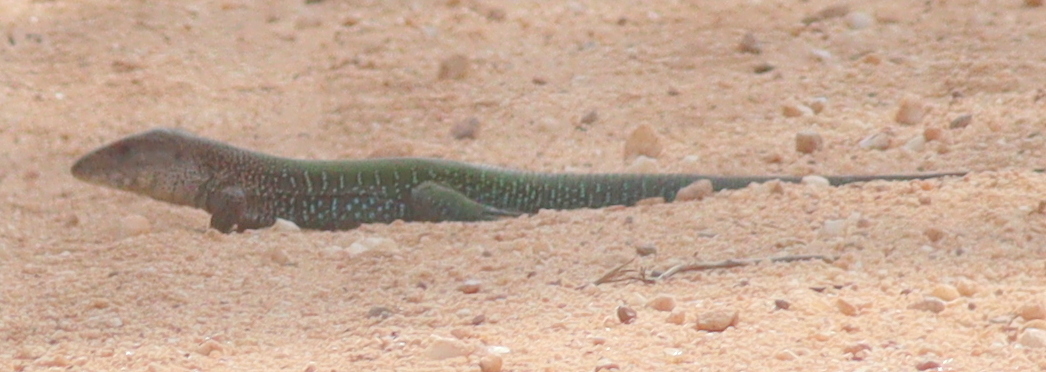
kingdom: Animalia
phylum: Chordata
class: Squamata
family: Teiidae
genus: Ameiva
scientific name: Ameiva ameiva
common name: Giant ameiva
